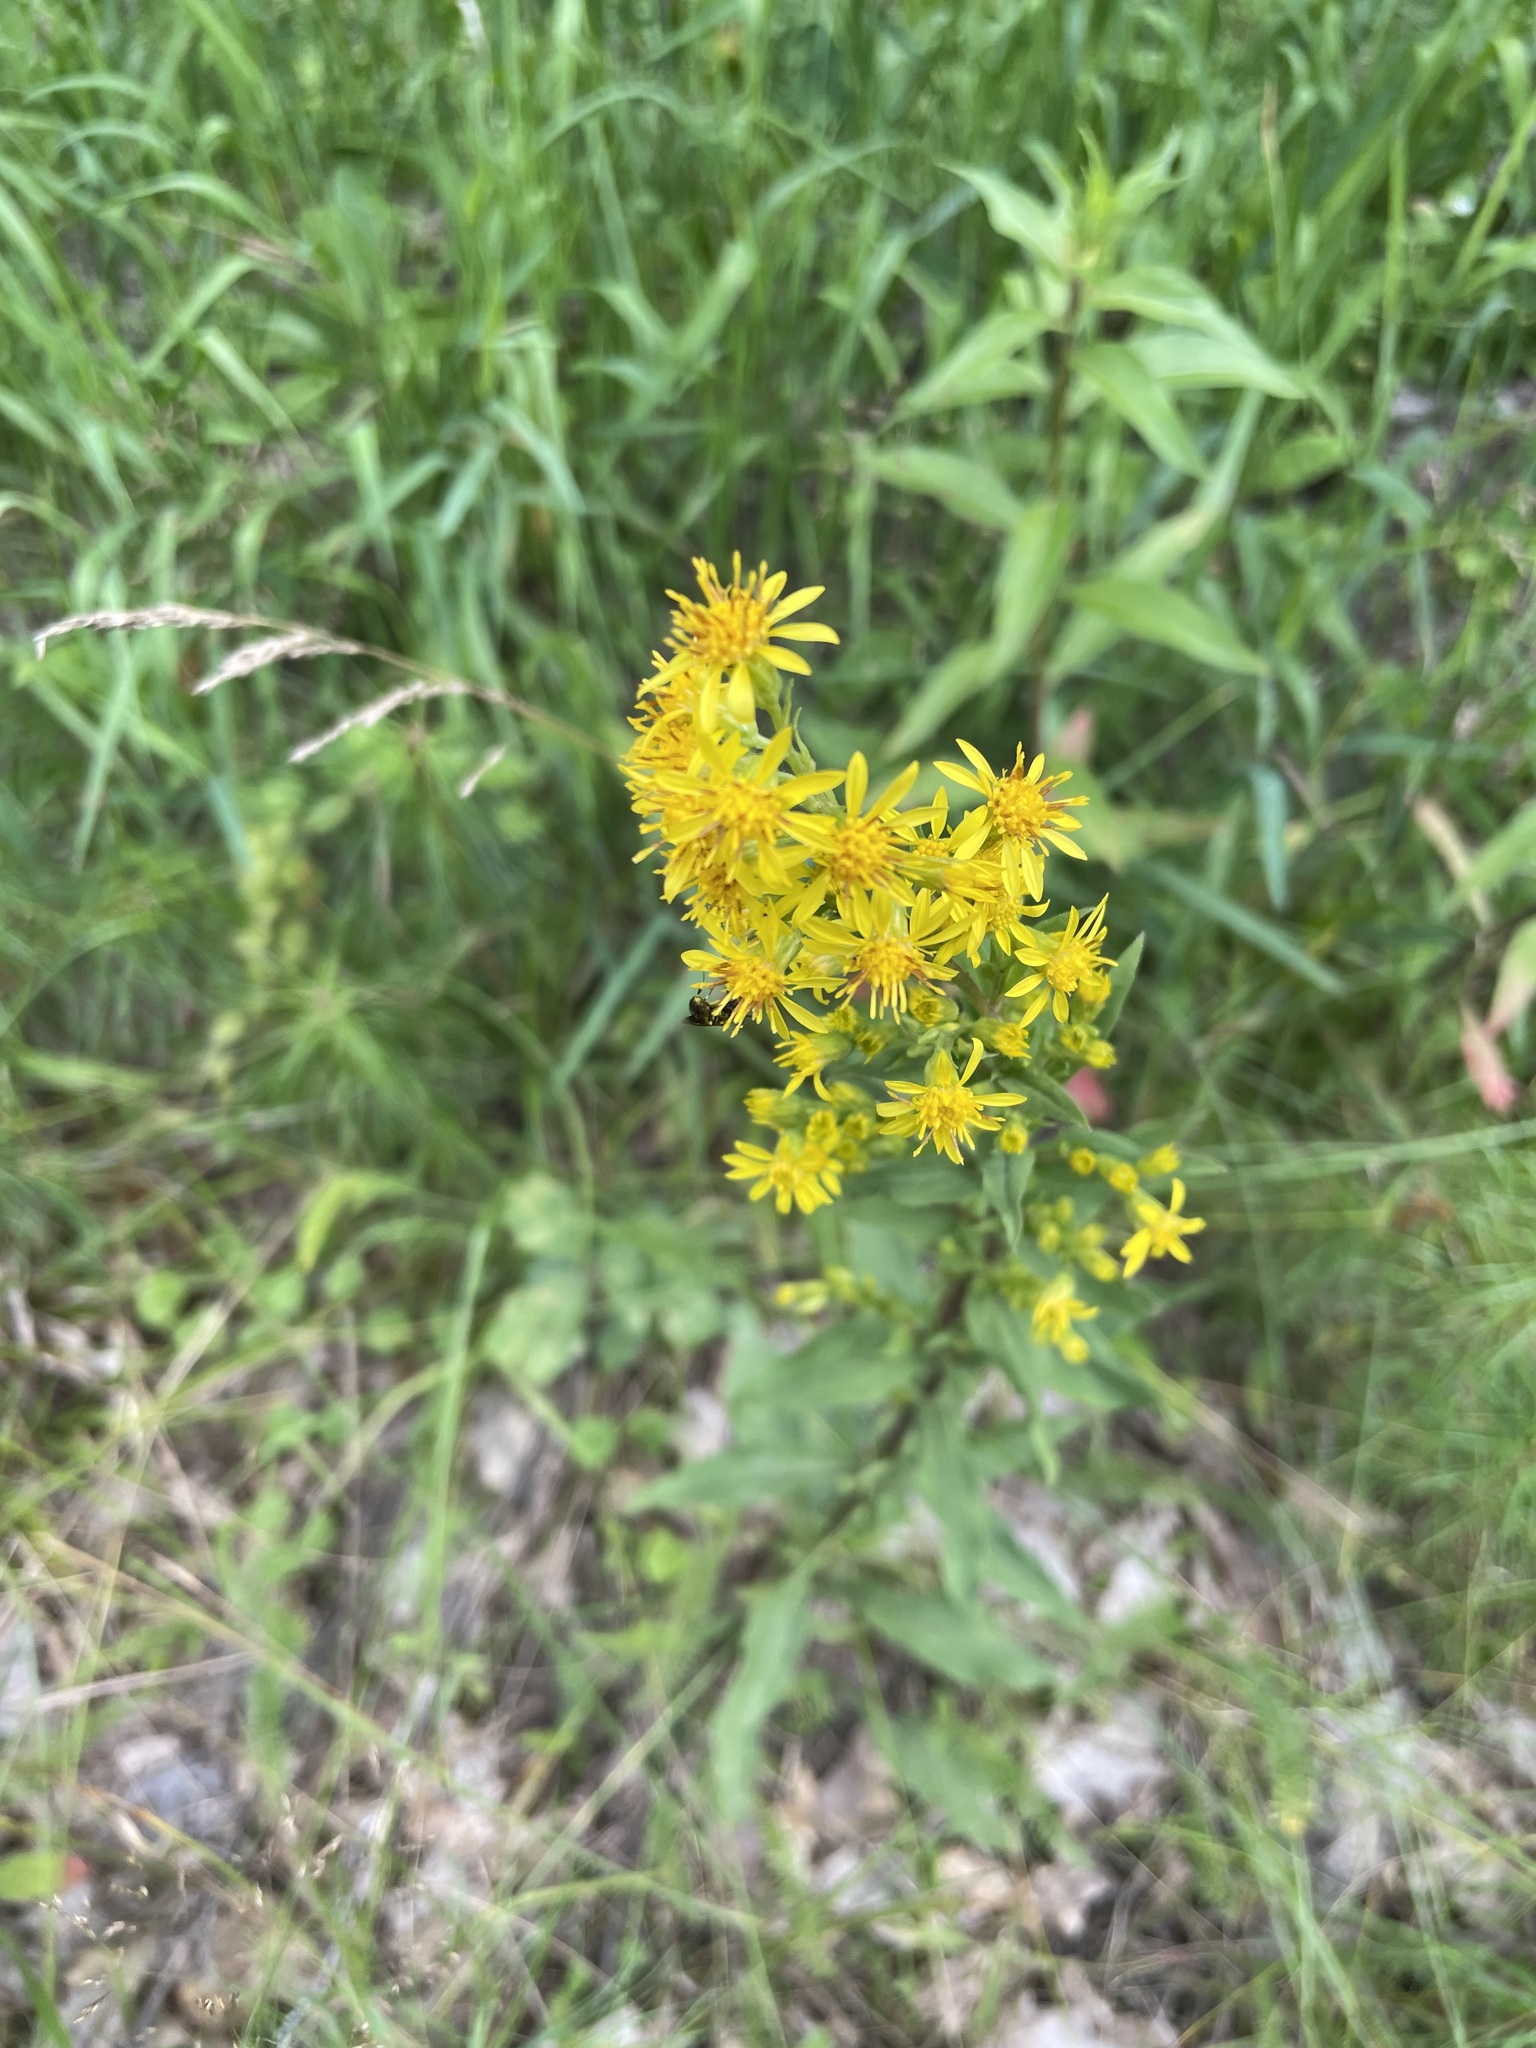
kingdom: Plantae
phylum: Tracheophyta
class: Magnoliopsida
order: Asterales
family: Asteraceae
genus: Solidago
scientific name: Solidago virgaurea
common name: Goldenrod
